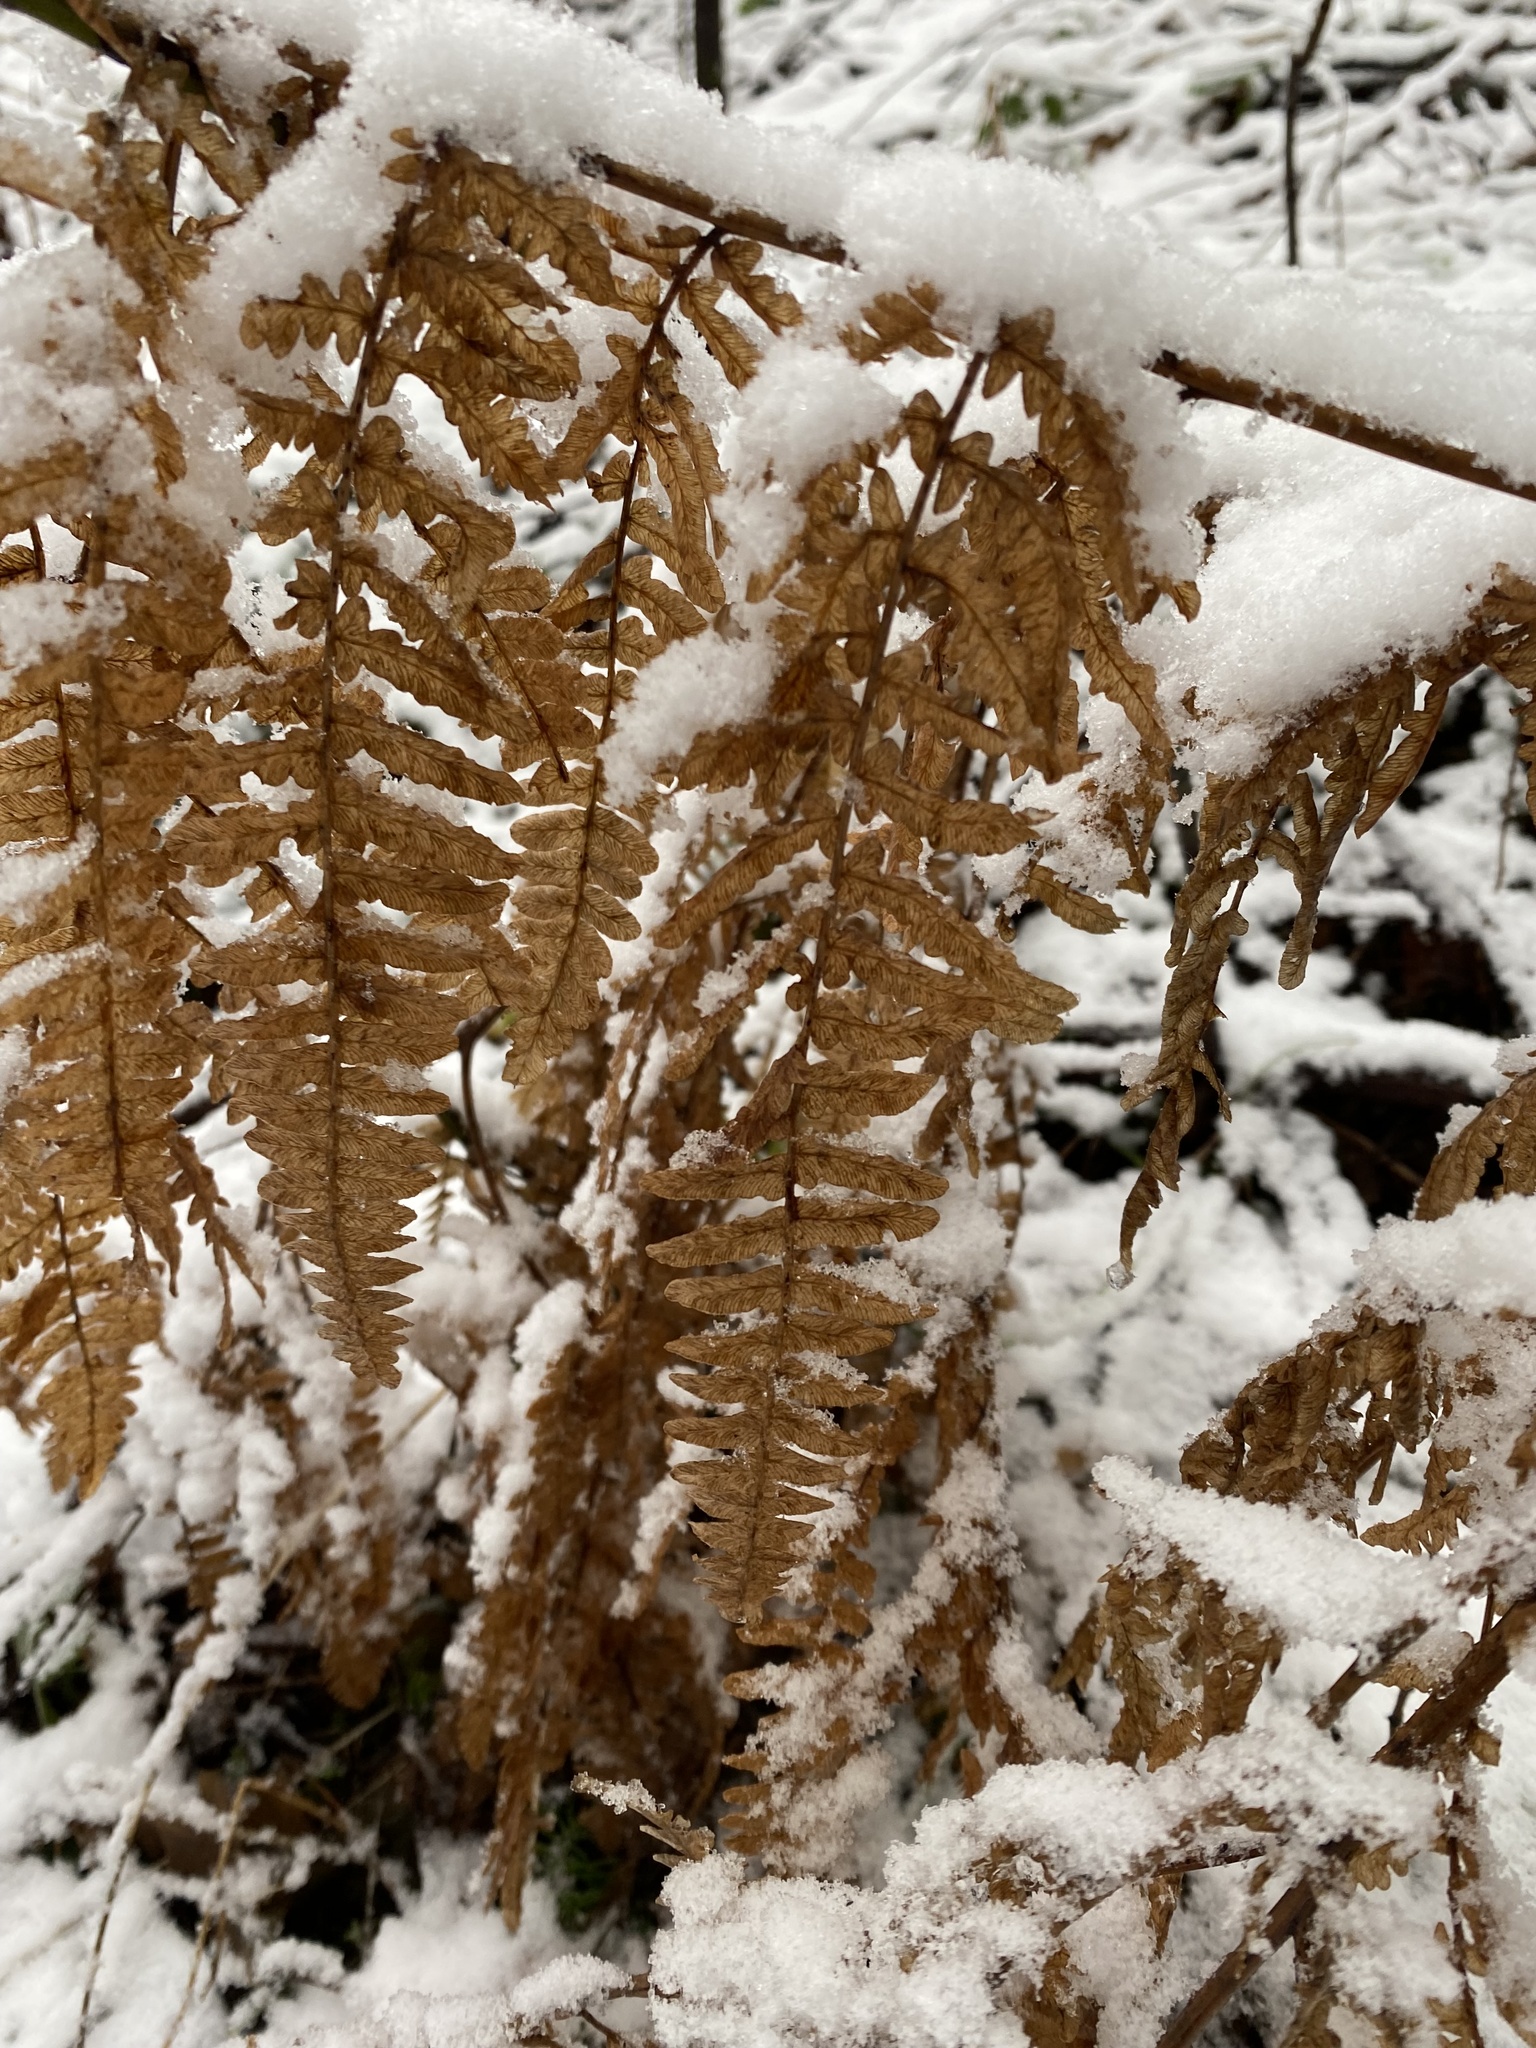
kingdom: Plantae
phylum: Tracheophyta
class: Polypodiopsida
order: Polypodiales
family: Dennstaedtiaceae
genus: Pteridium
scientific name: Pteridium aquilinum
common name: Bracken
